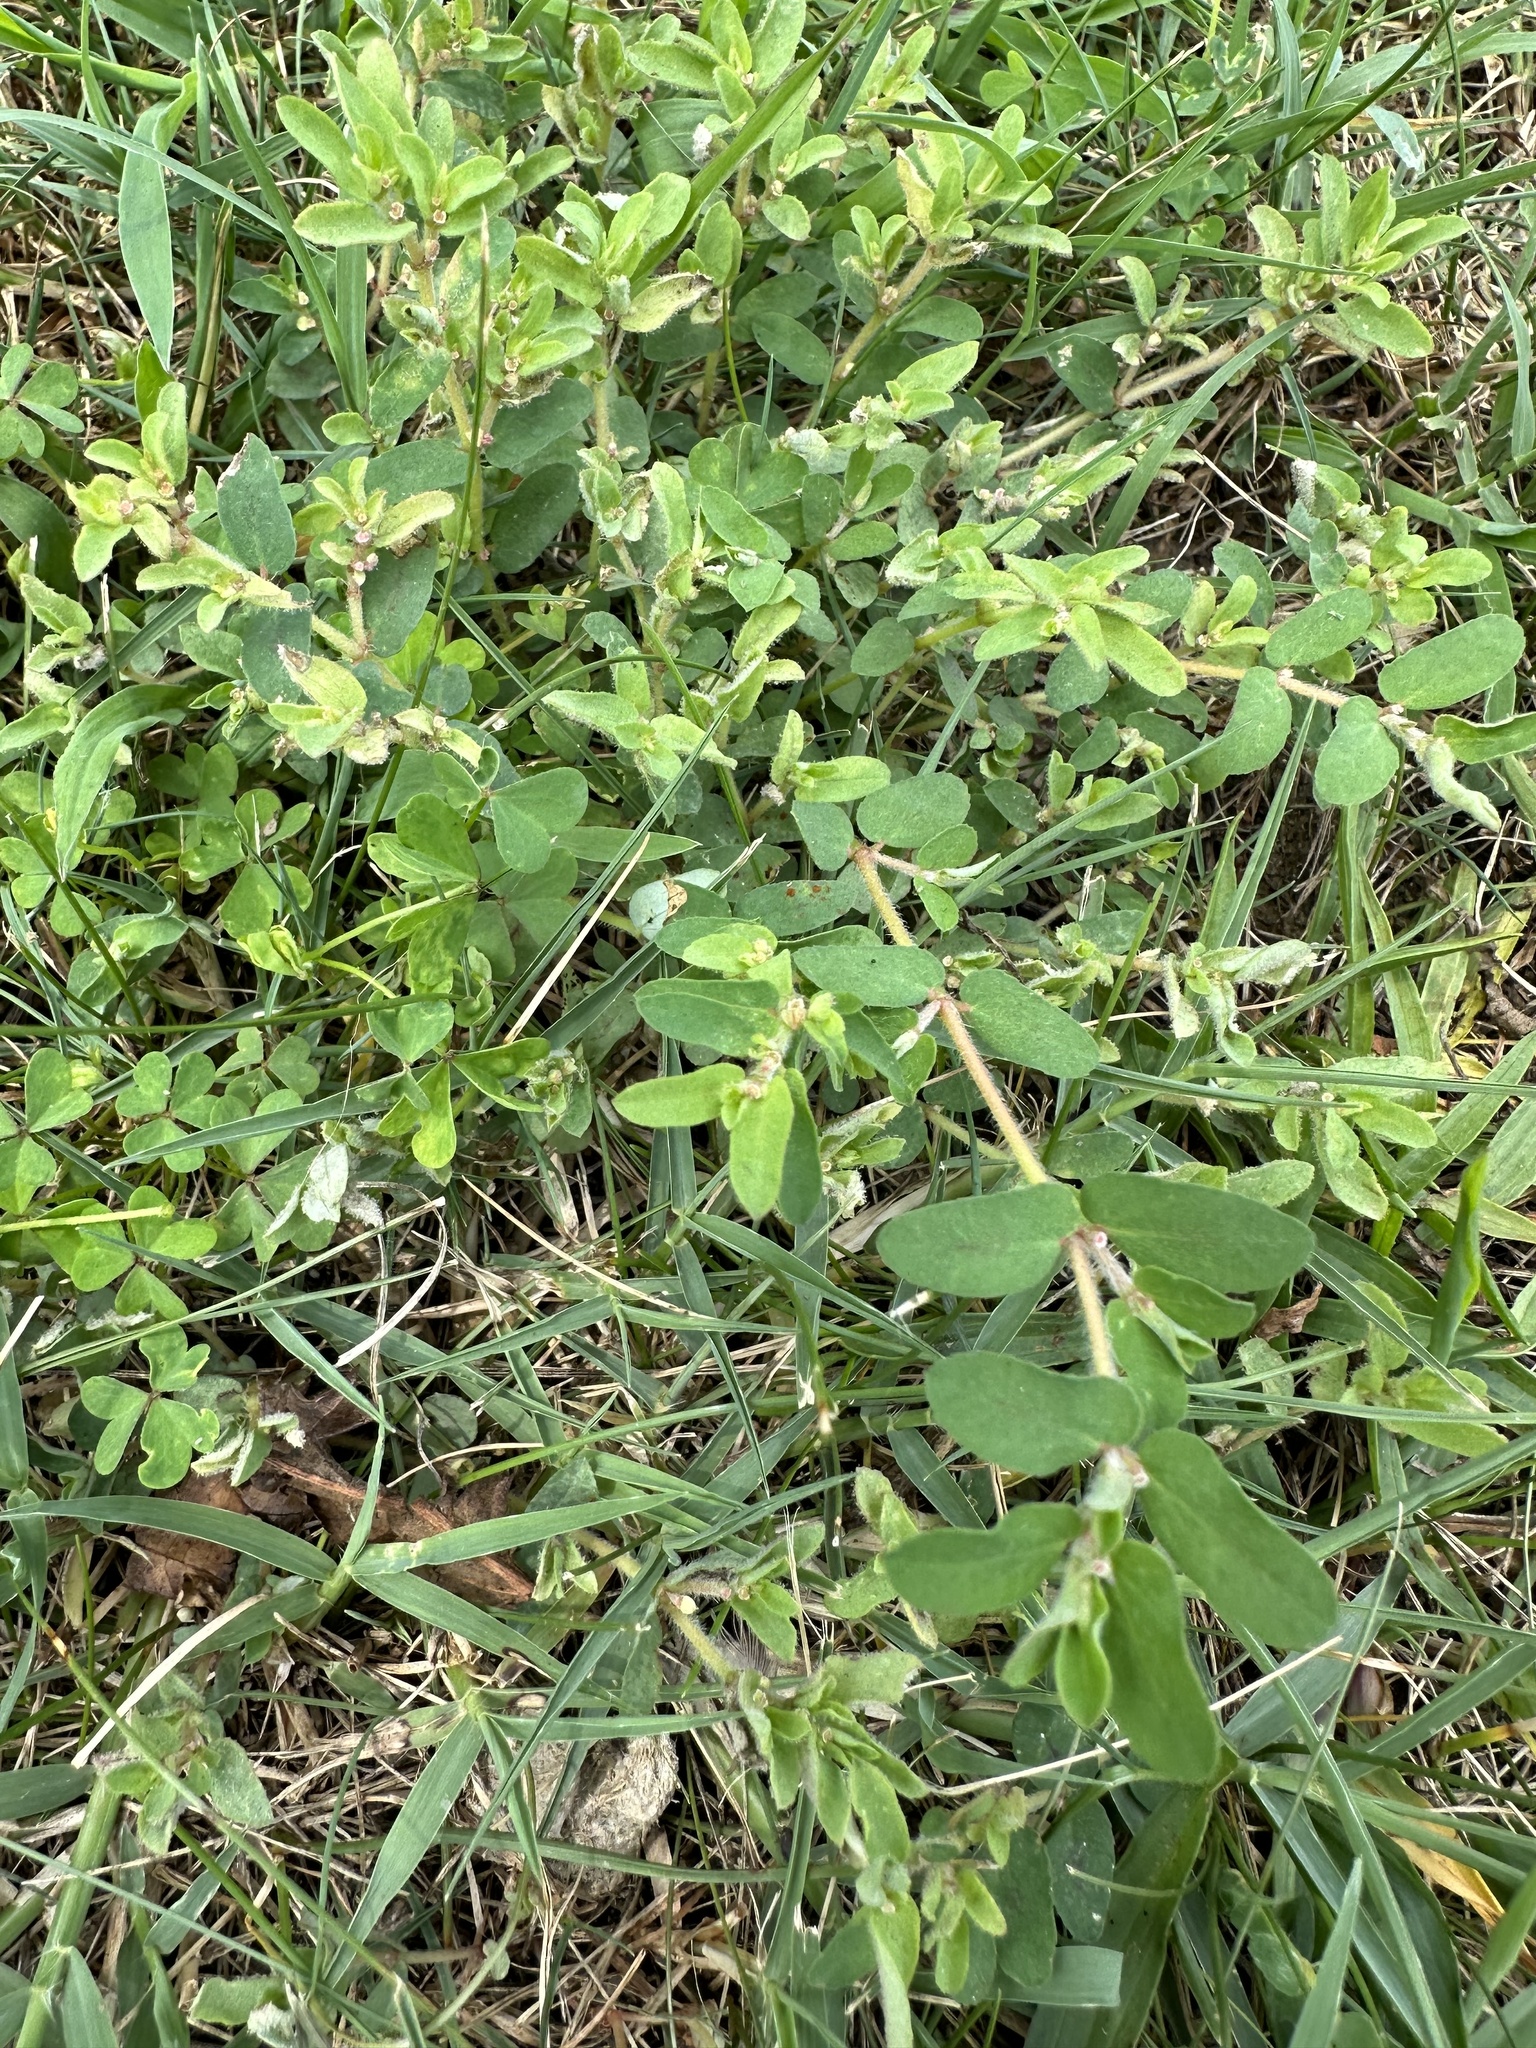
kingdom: Plantae
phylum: Tracheophyta
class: Magnoliopsida
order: Malpighiales
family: Euphorbiaceae
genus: Euphorbia
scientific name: Euphorbia maculata
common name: Spotted spurge
